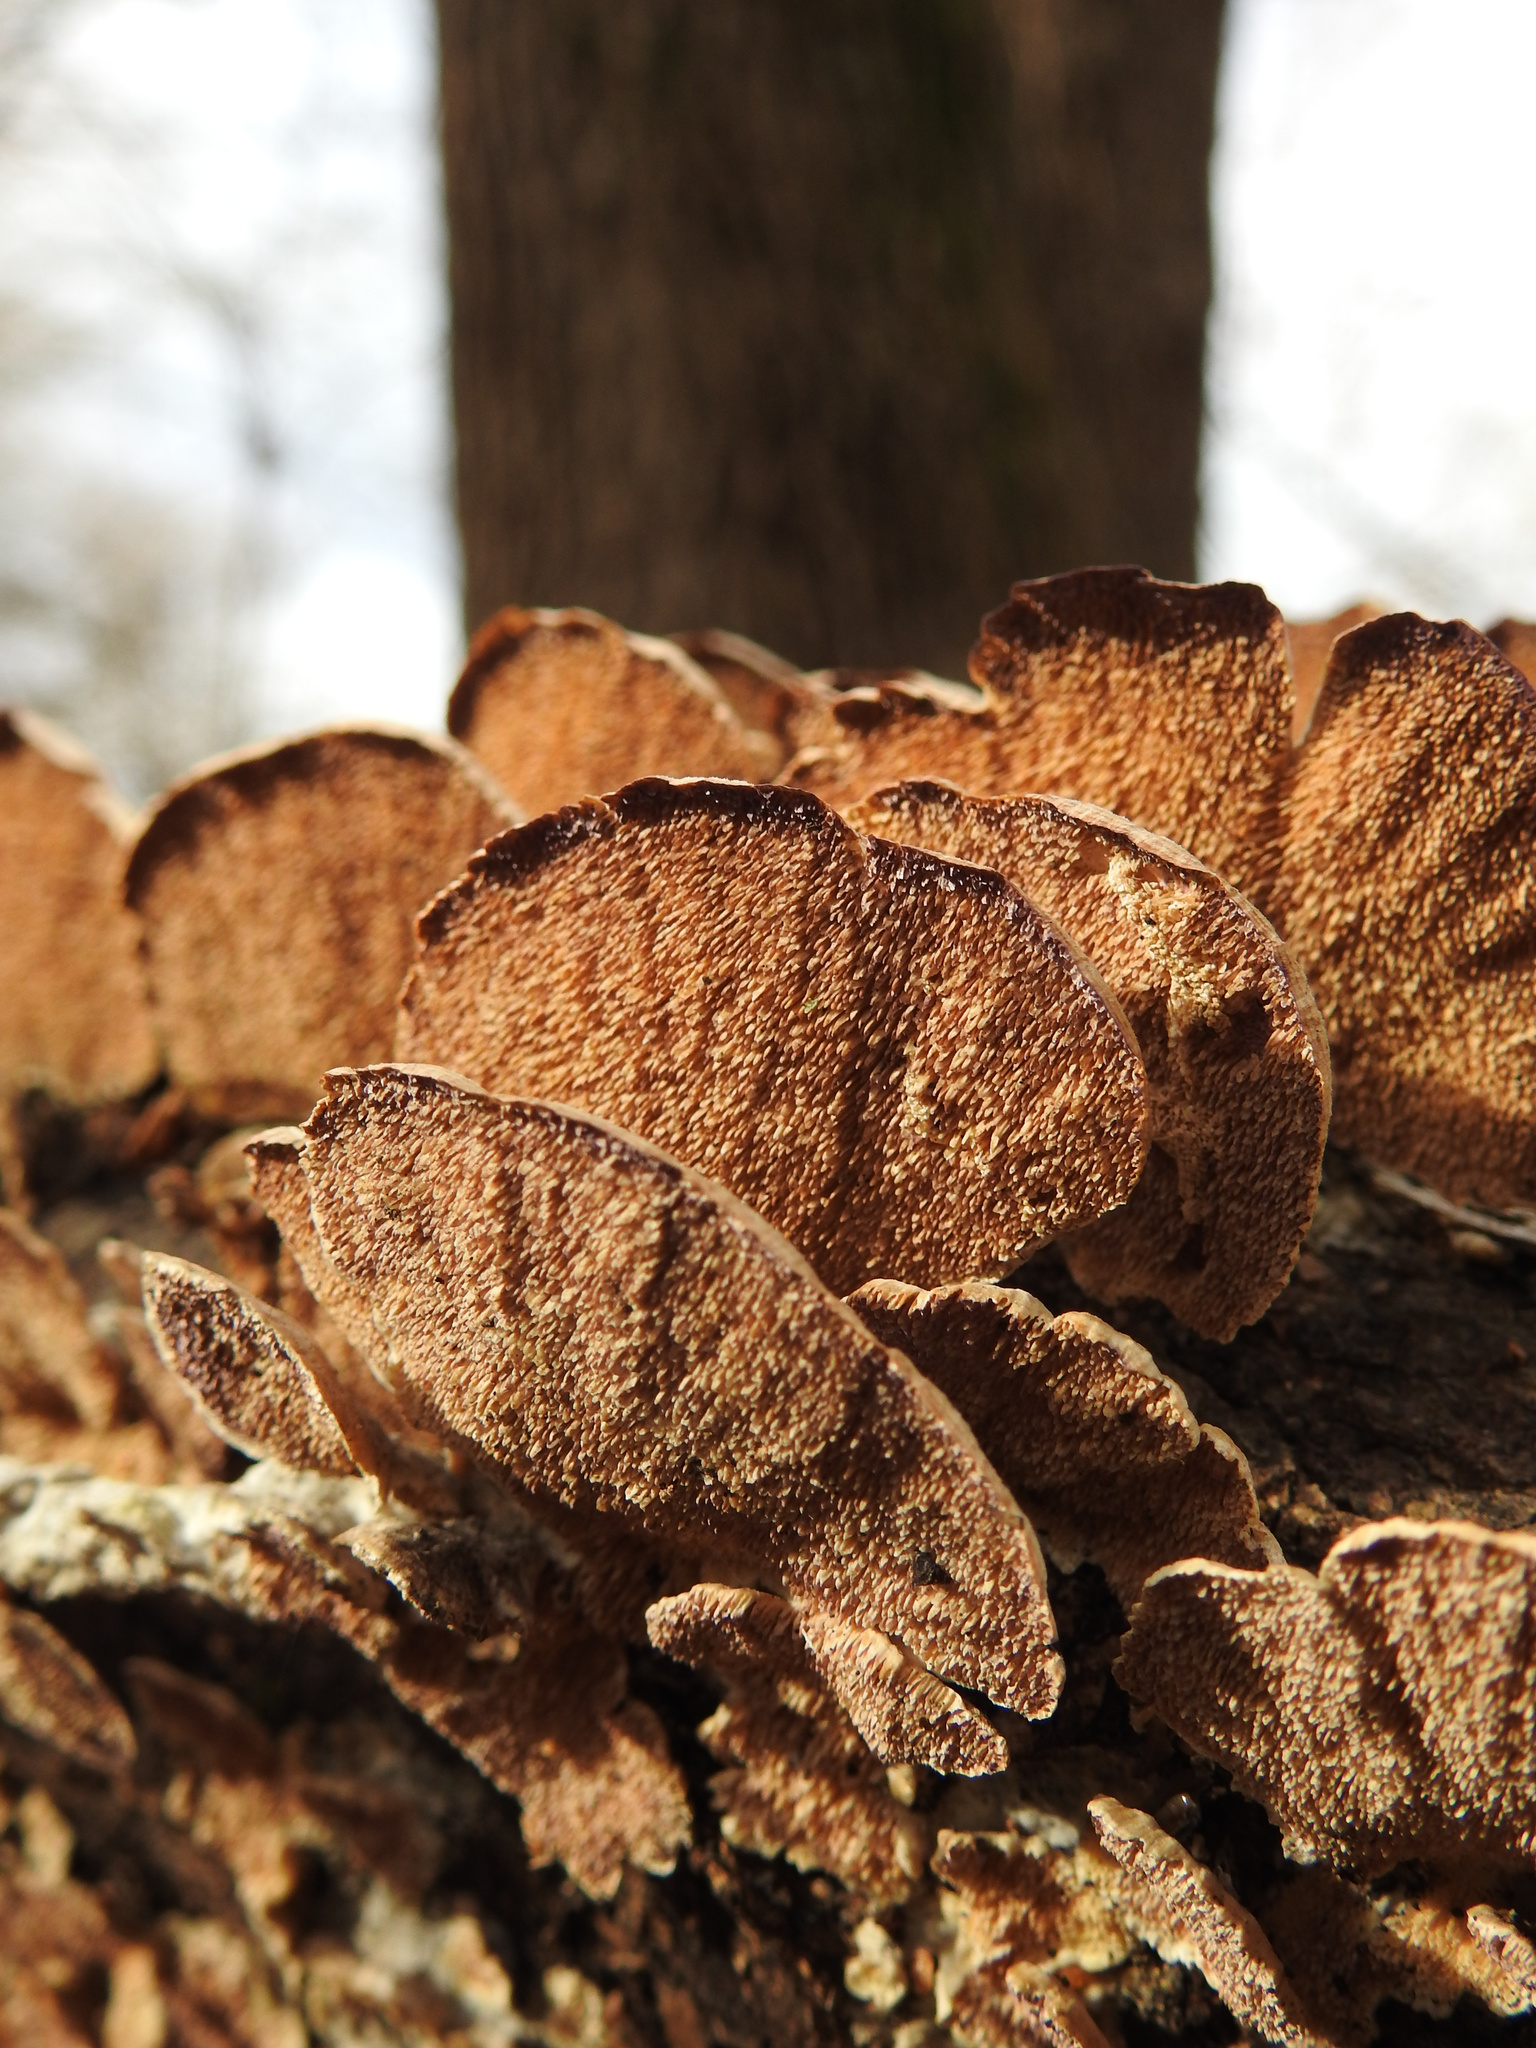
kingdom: Fungi
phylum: Basidiomycota
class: Agaricomycetes
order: Hymenochaetales
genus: Trichaptum
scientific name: Trichaptum biforme
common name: Violet-toothed polypore
